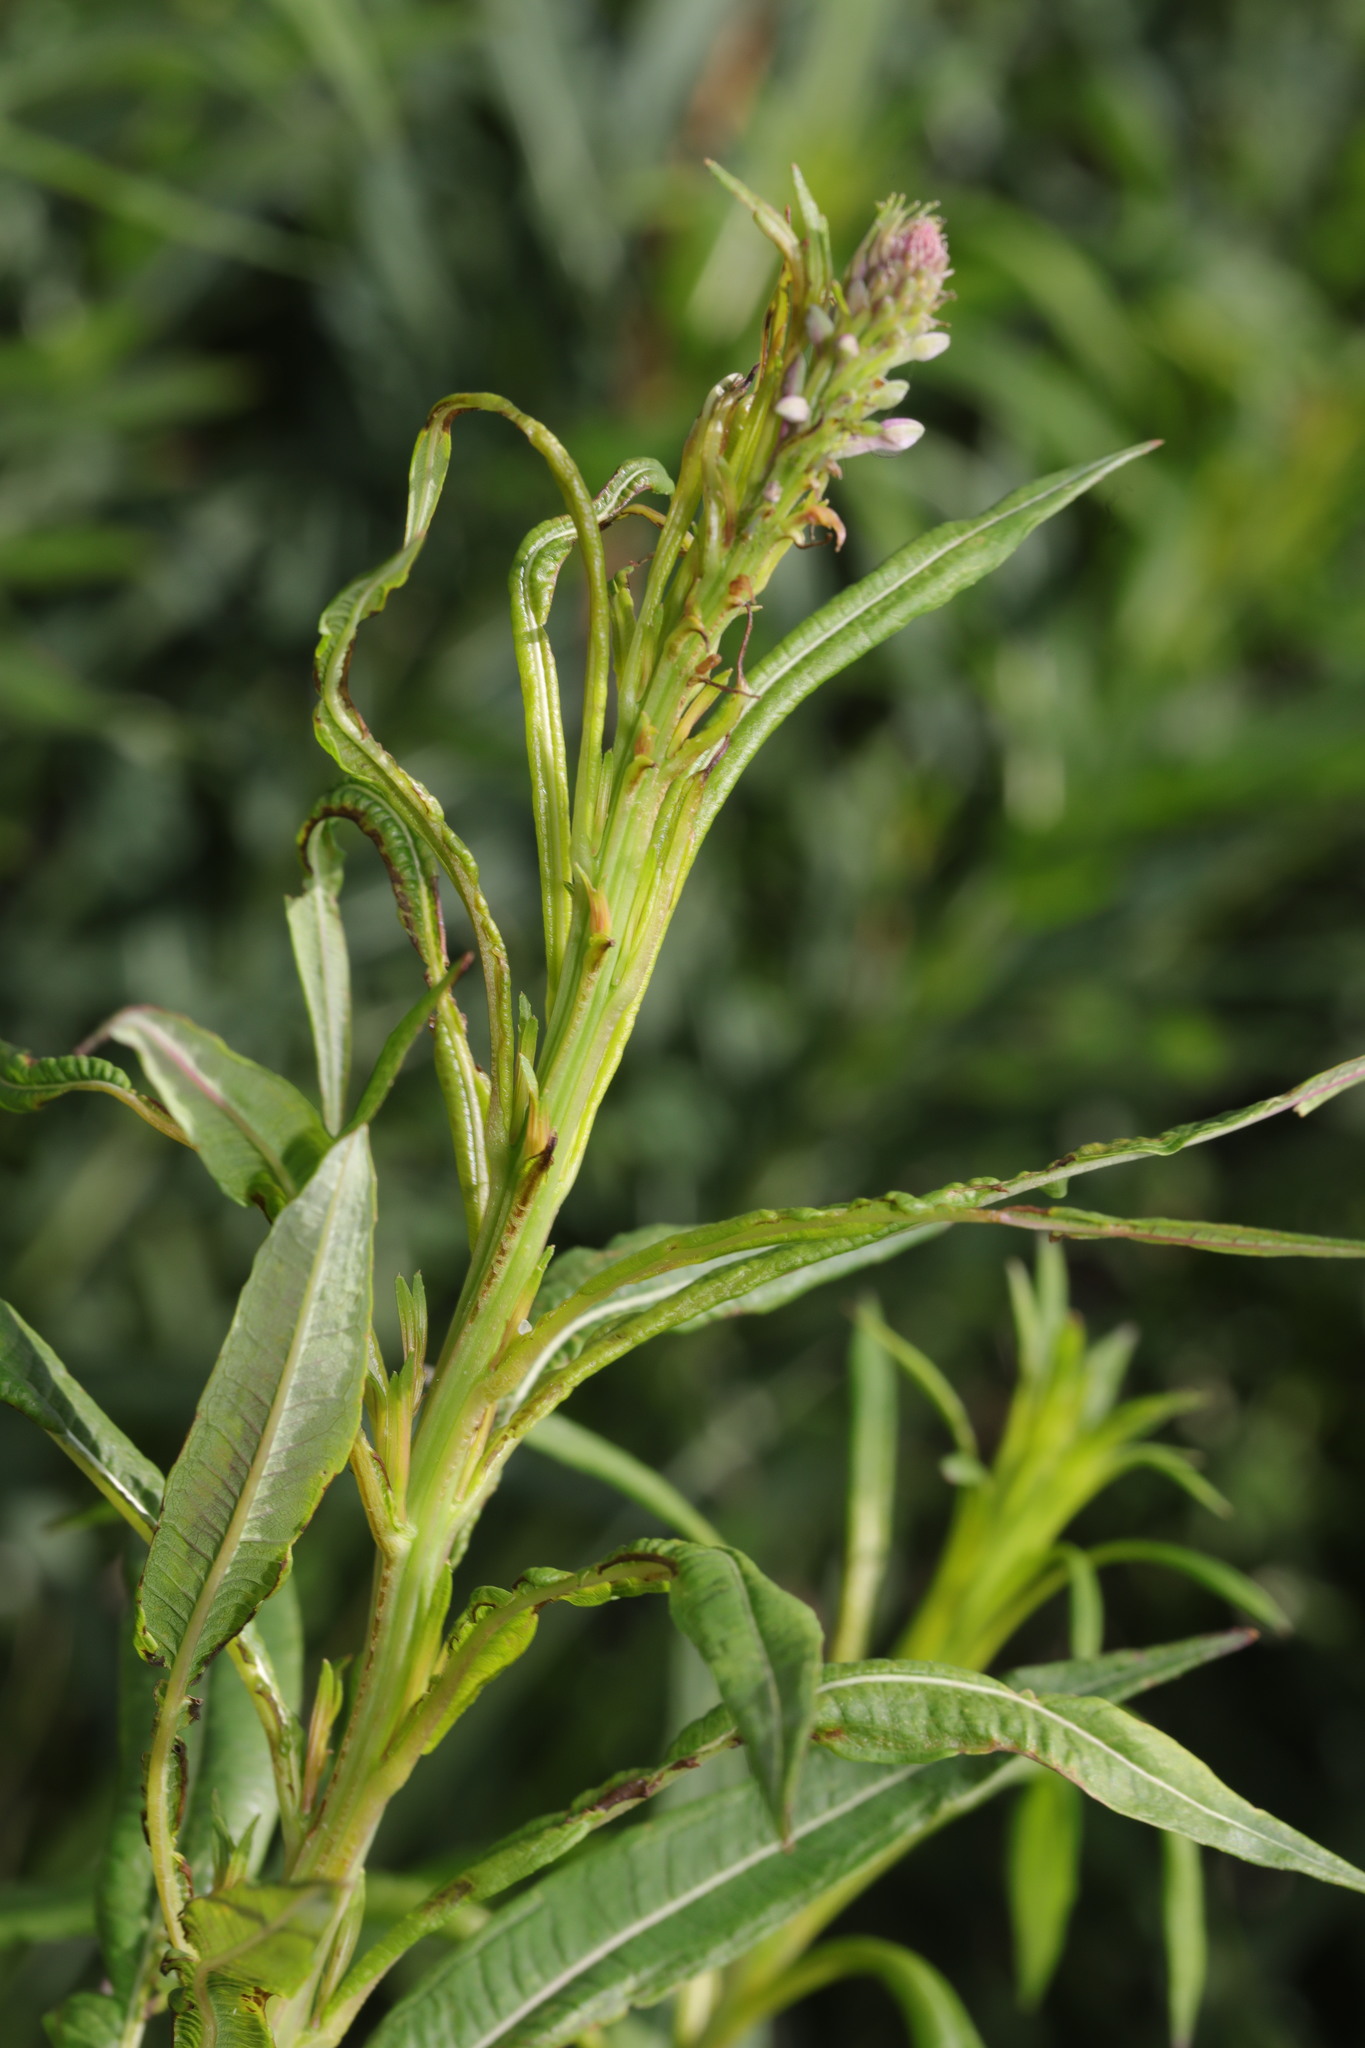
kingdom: Plantae
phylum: Tracheophyta
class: Magnoliopsida
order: Myrtales
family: Onagraceae
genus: Chamaenerion
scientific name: Chamaenerion angustifolium
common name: Fireweed
